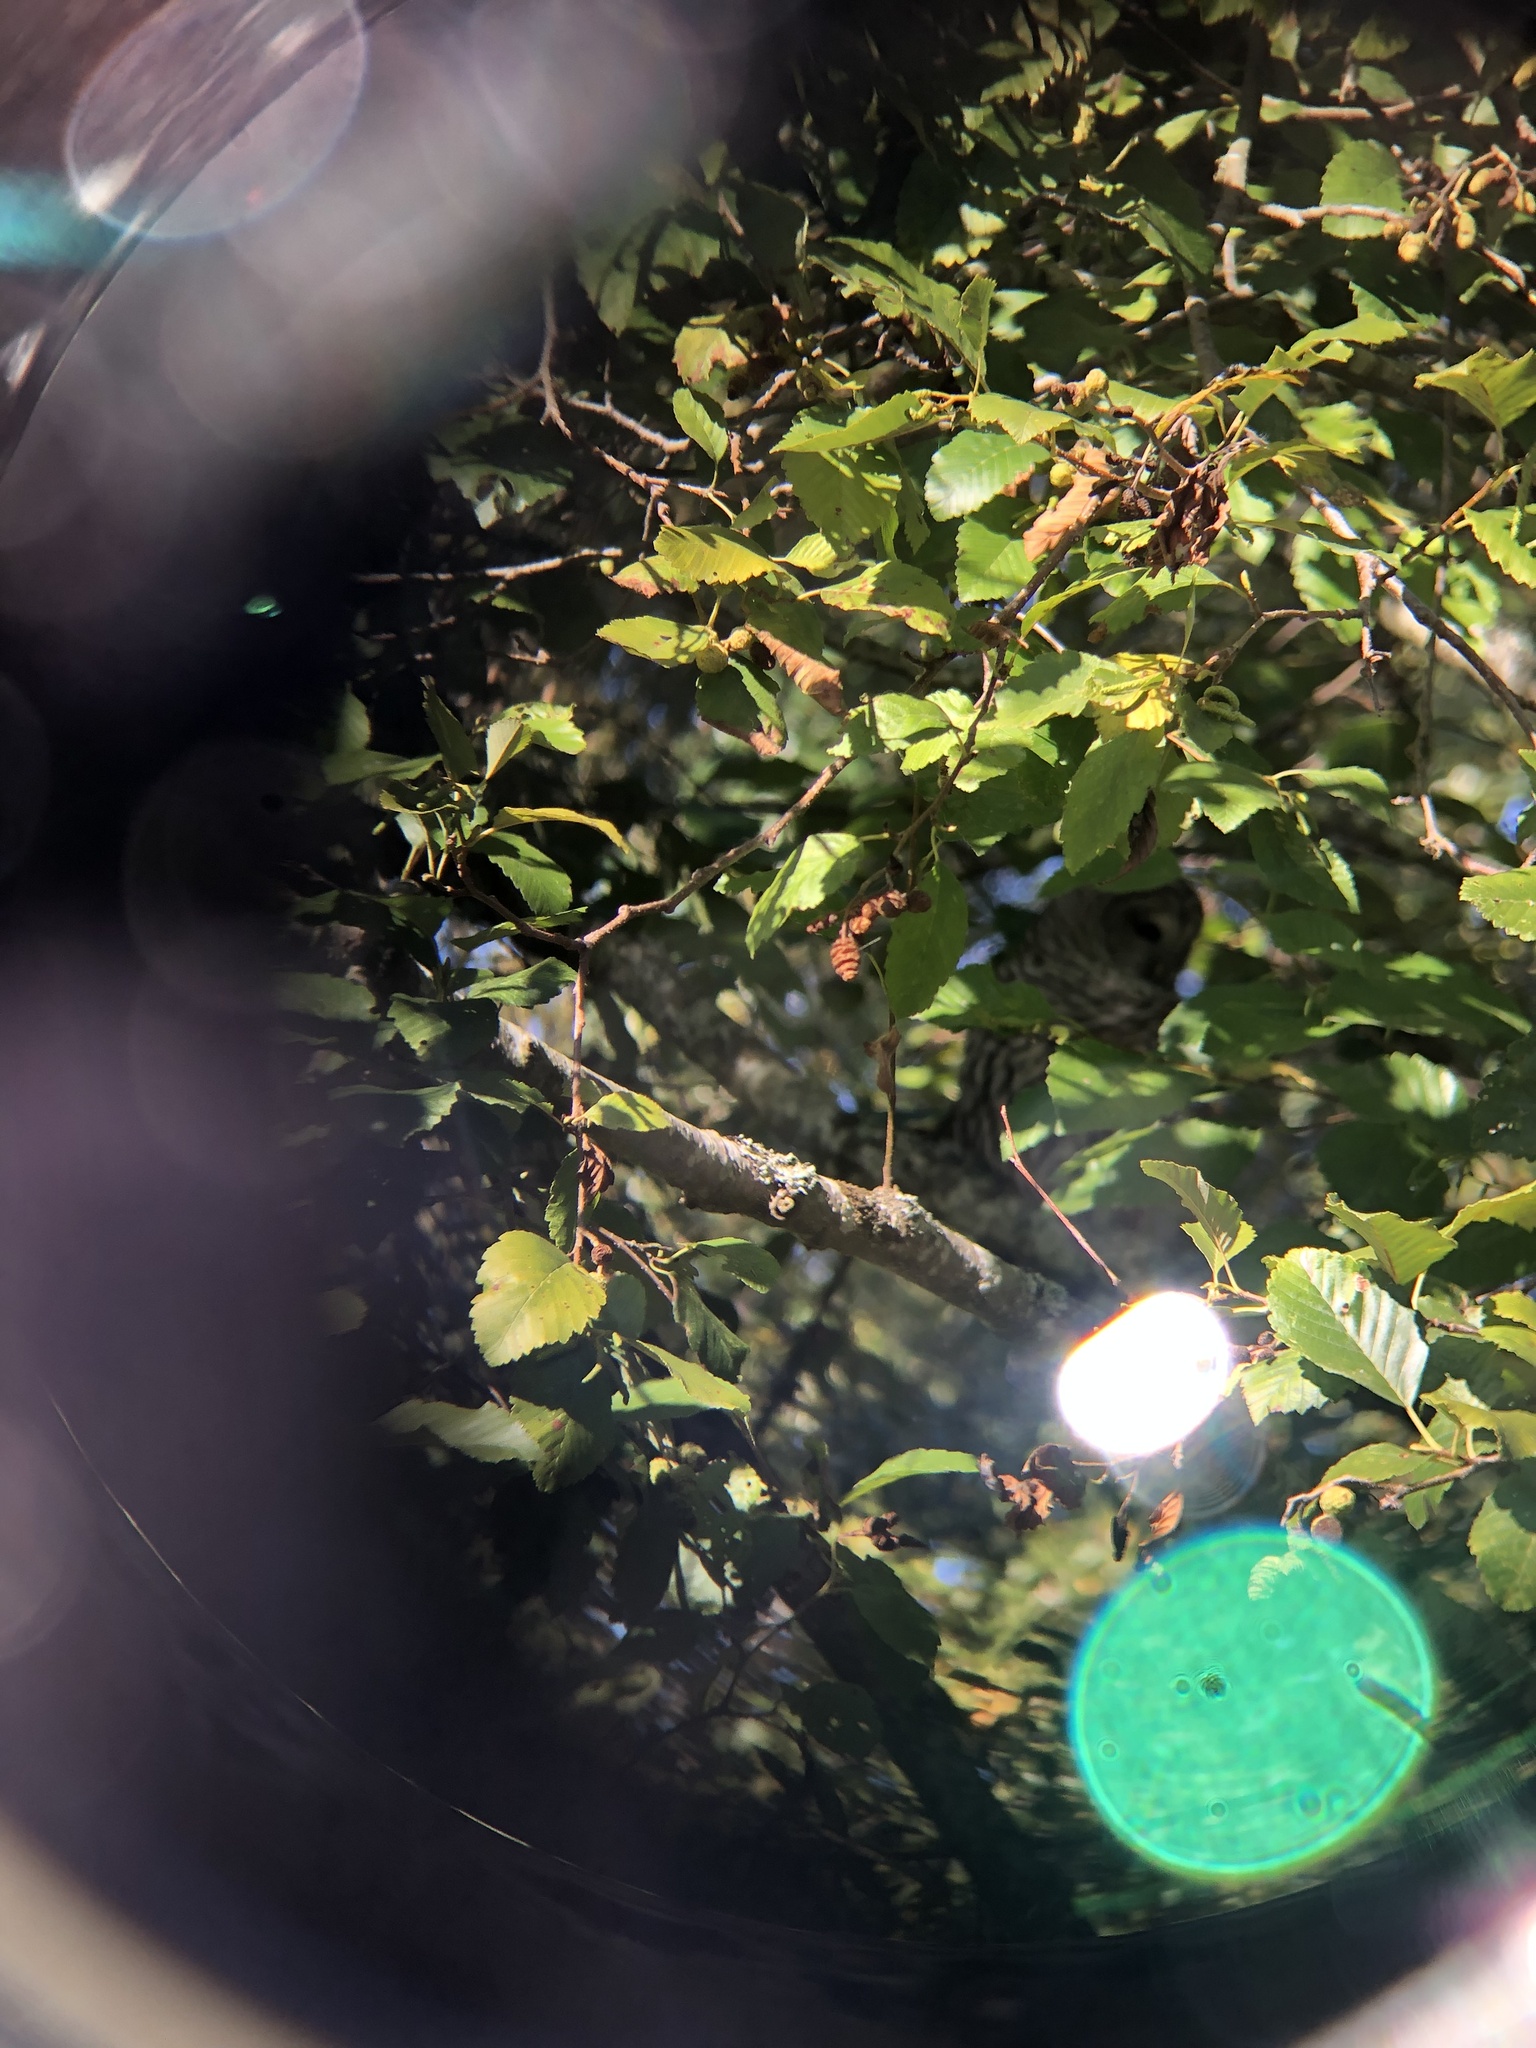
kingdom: Animalia
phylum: Chordata
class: Aves
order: Strigiformes
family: Strigidae
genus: Strix
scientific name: Strix varia
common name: Barred owl
